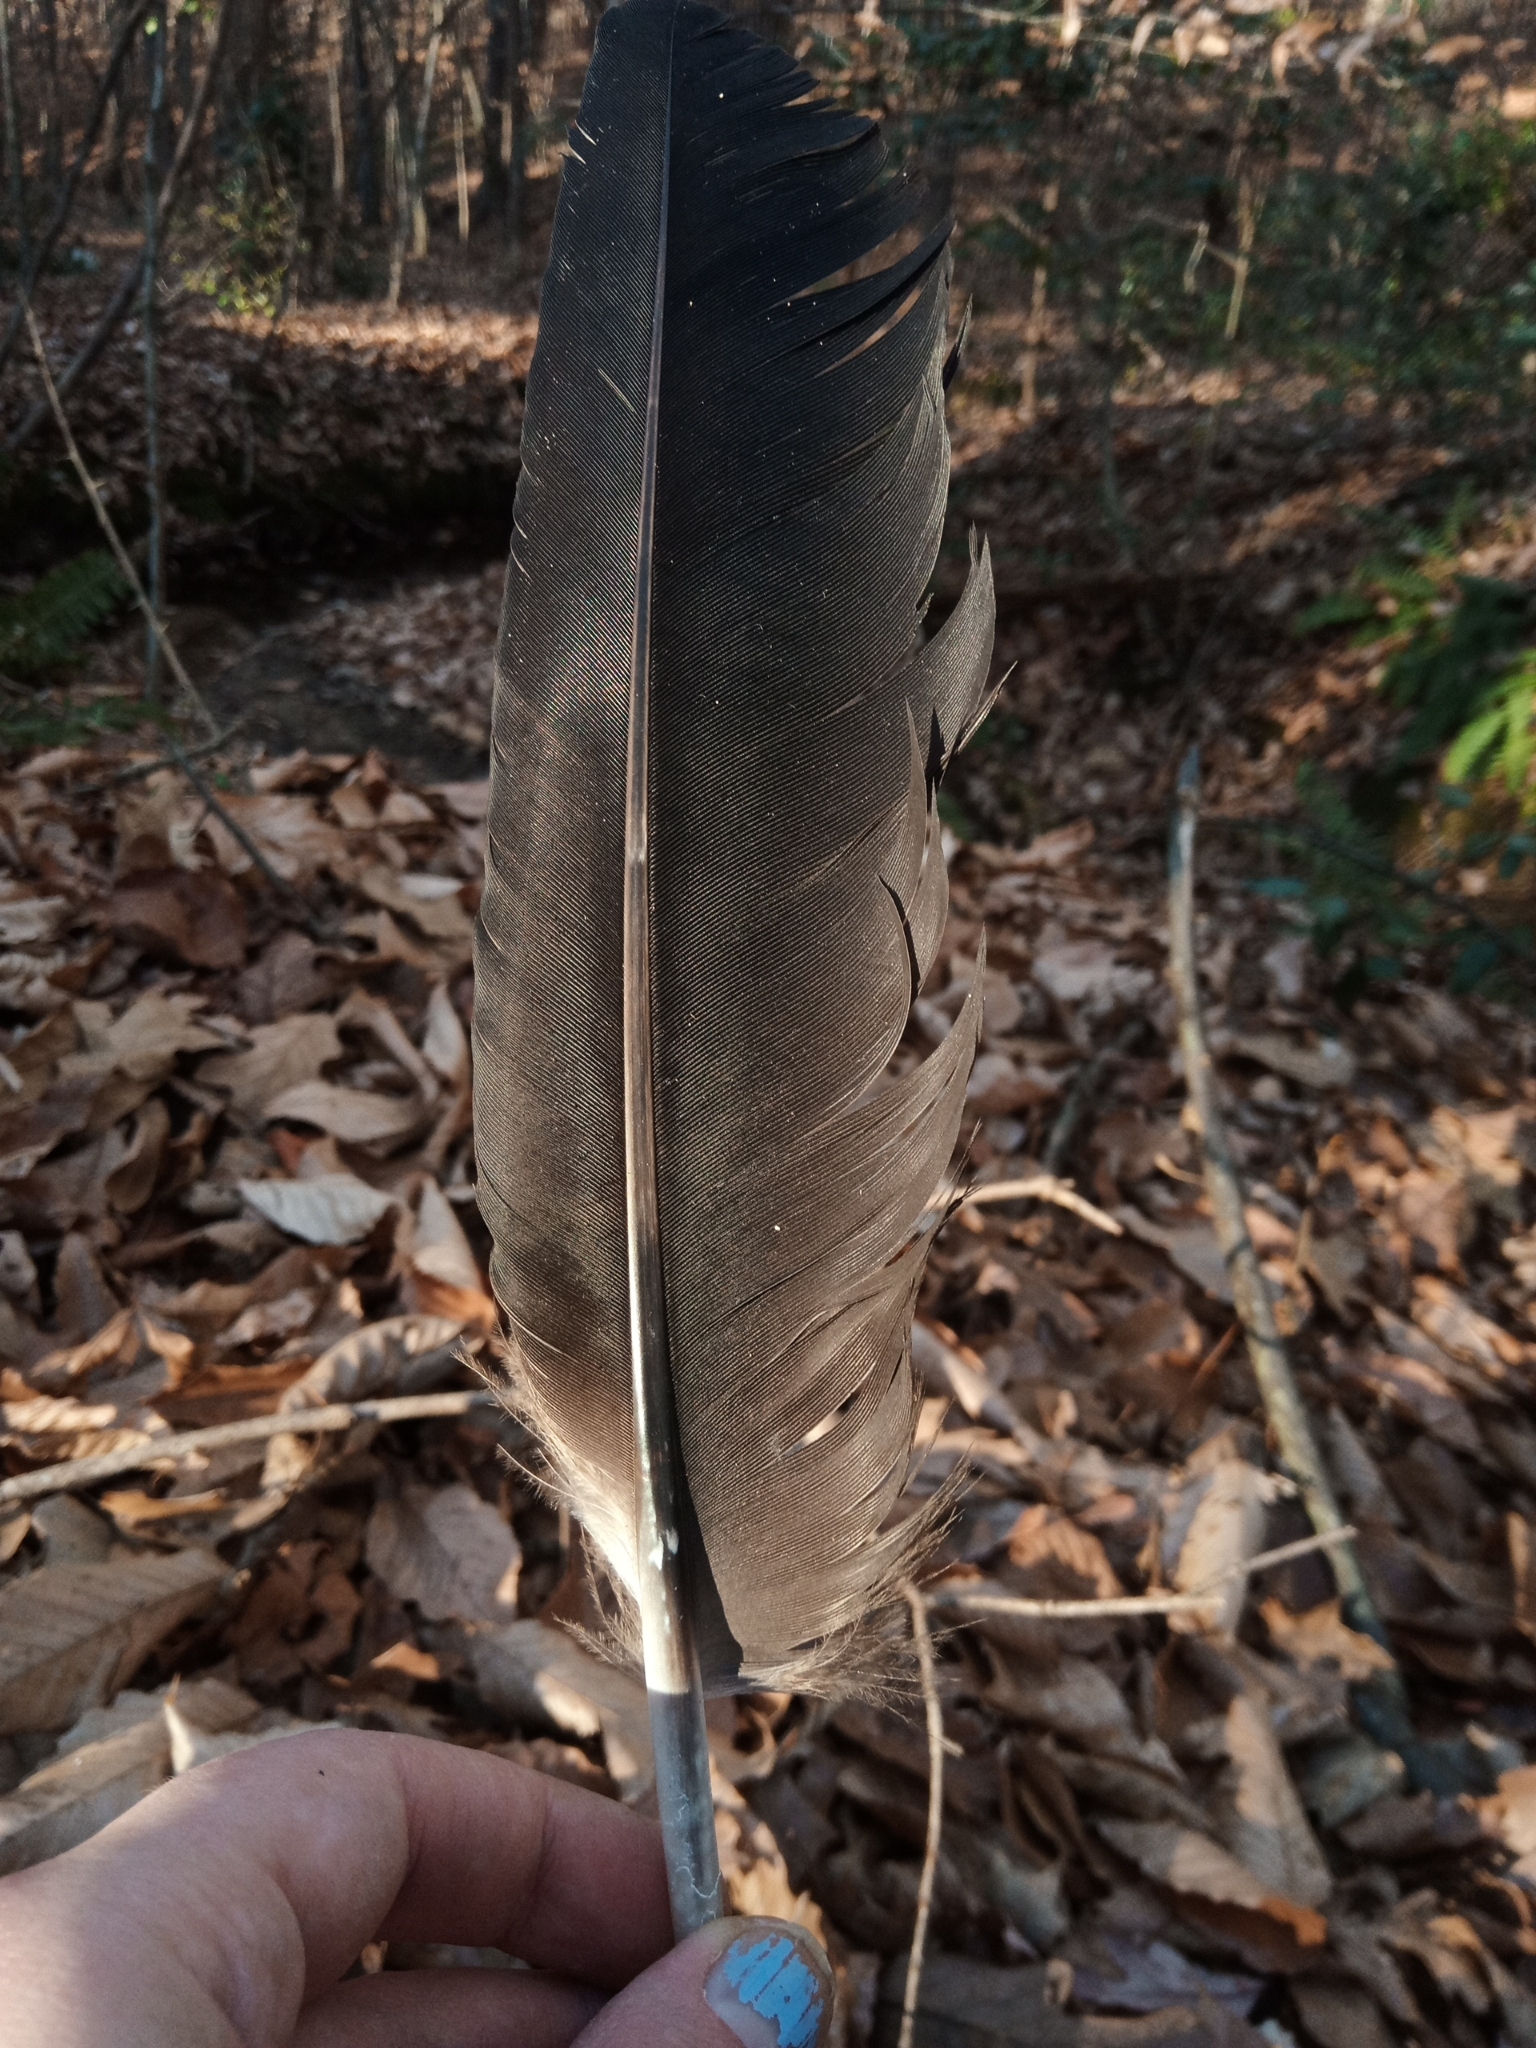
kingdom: Animalia
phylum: Chordata
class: Aves
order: Accipitriformes
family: Cathartidae
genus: Coragyps
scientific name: Coragyps atratus
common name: Black vulture
